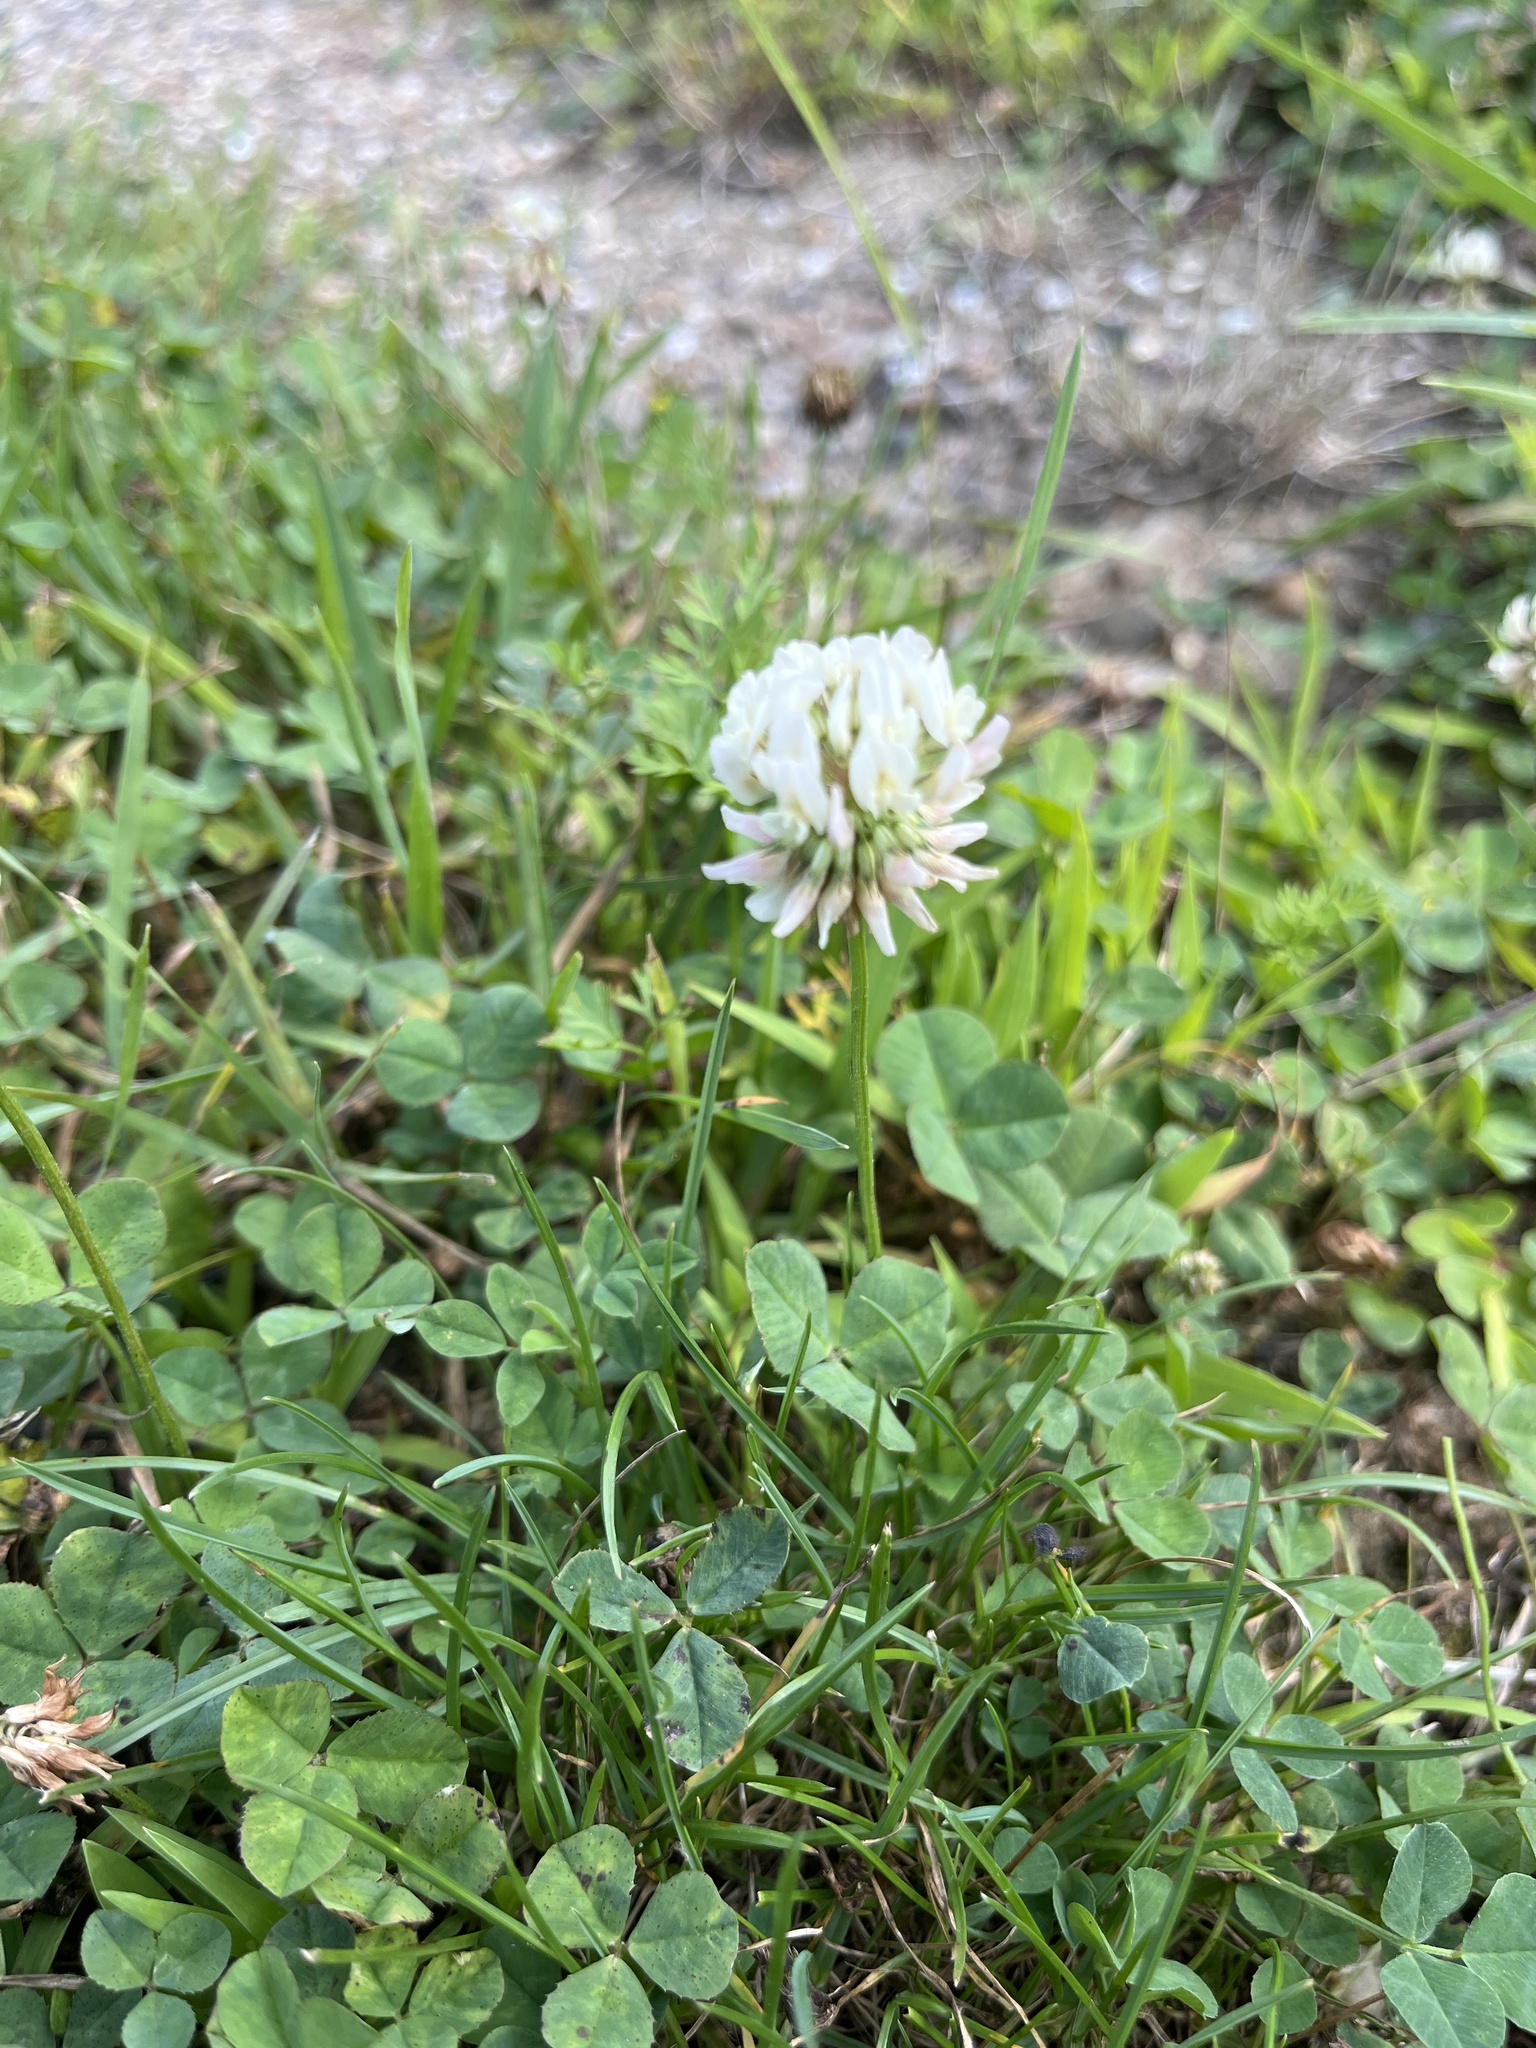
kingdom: Plantae
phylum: Tracheophyta
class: Magnoliopsida
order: Fabales
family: Fabaceae
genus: Trifolium
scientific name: Trifolium repens
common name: White clover
